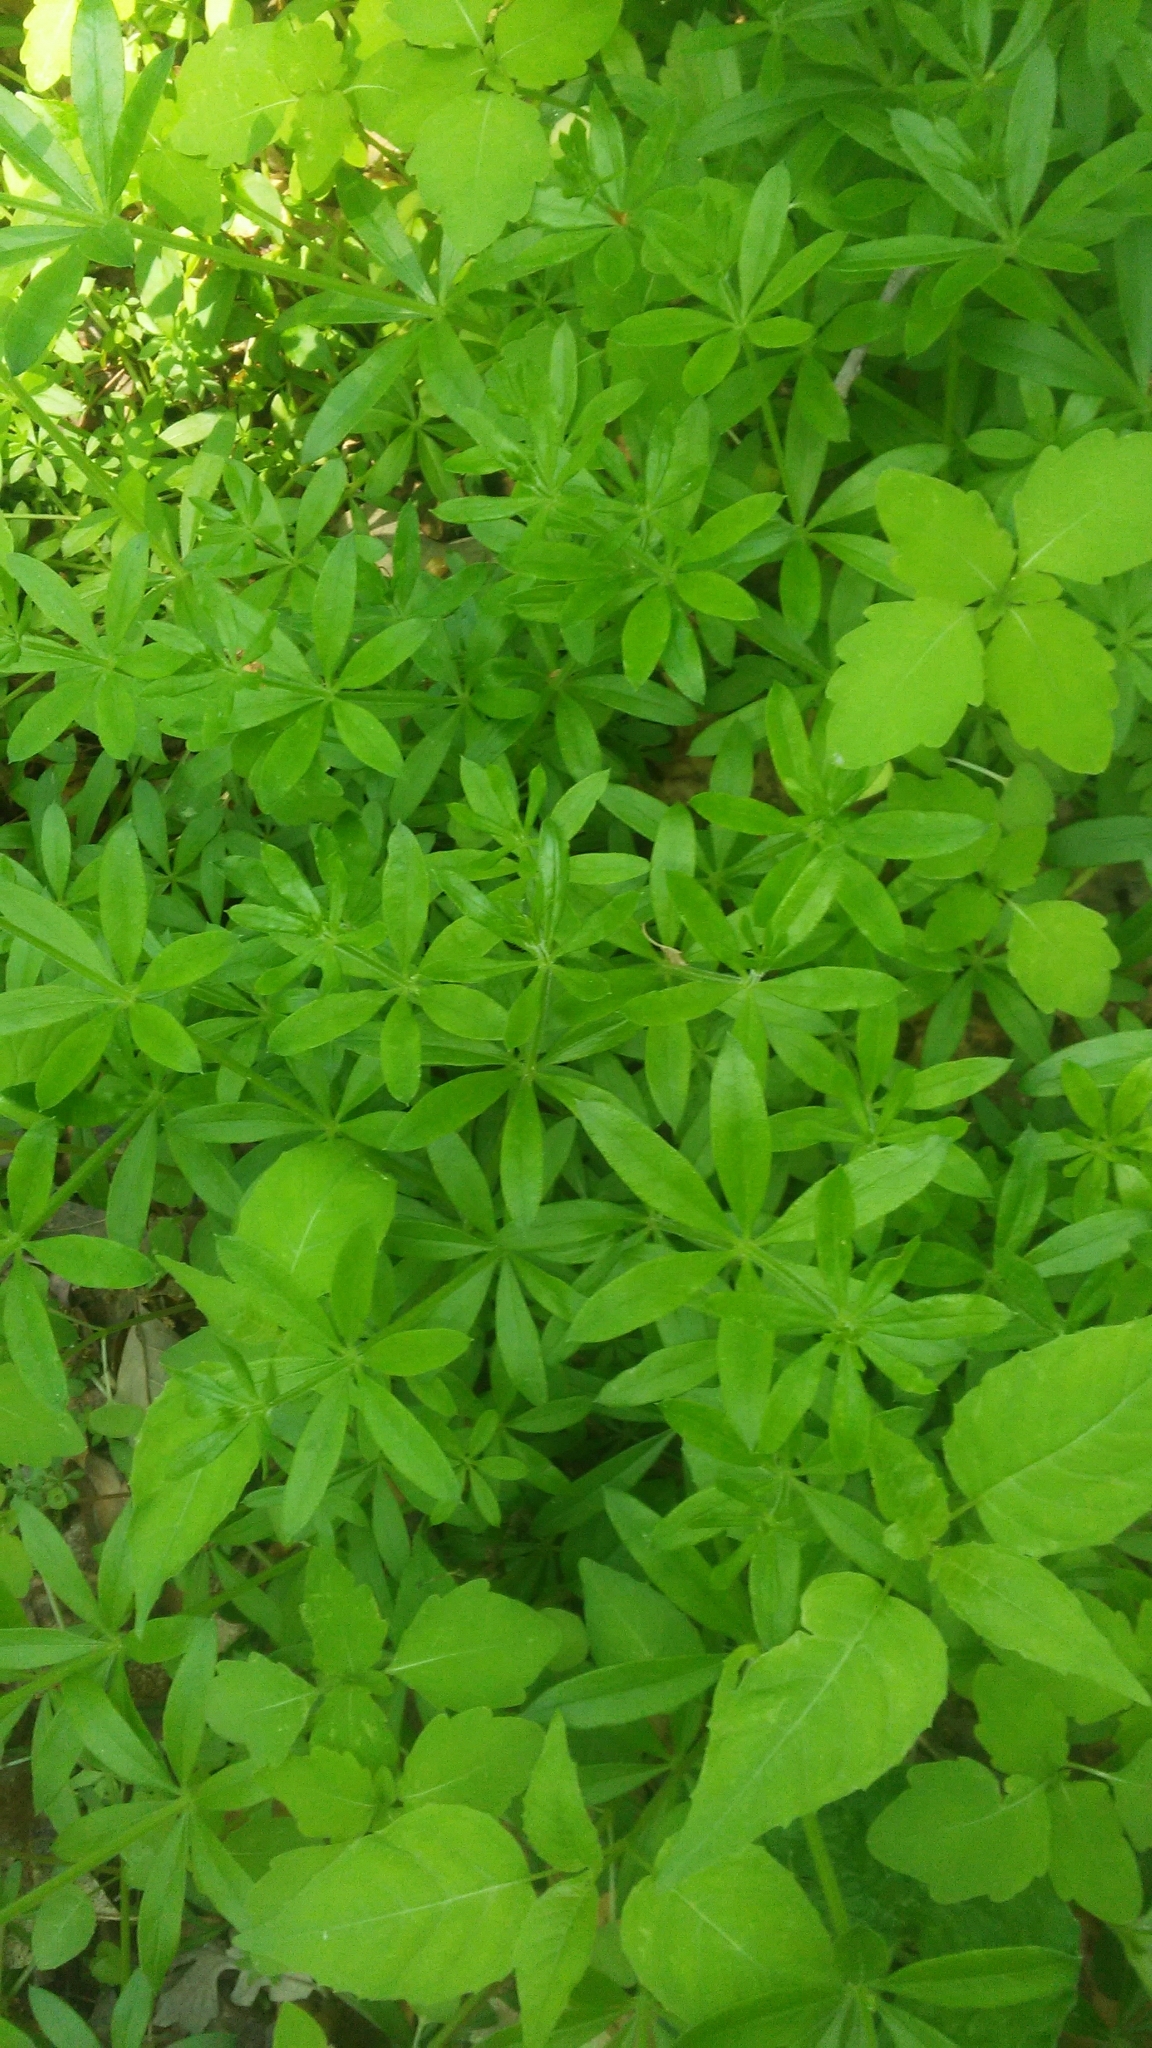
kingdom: Plantae
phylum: Tracheophyta
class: Magnoliopsida
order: Gentianales
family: Rubiaceae
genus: Galium
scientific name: Galium aparine
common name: Cleavers
